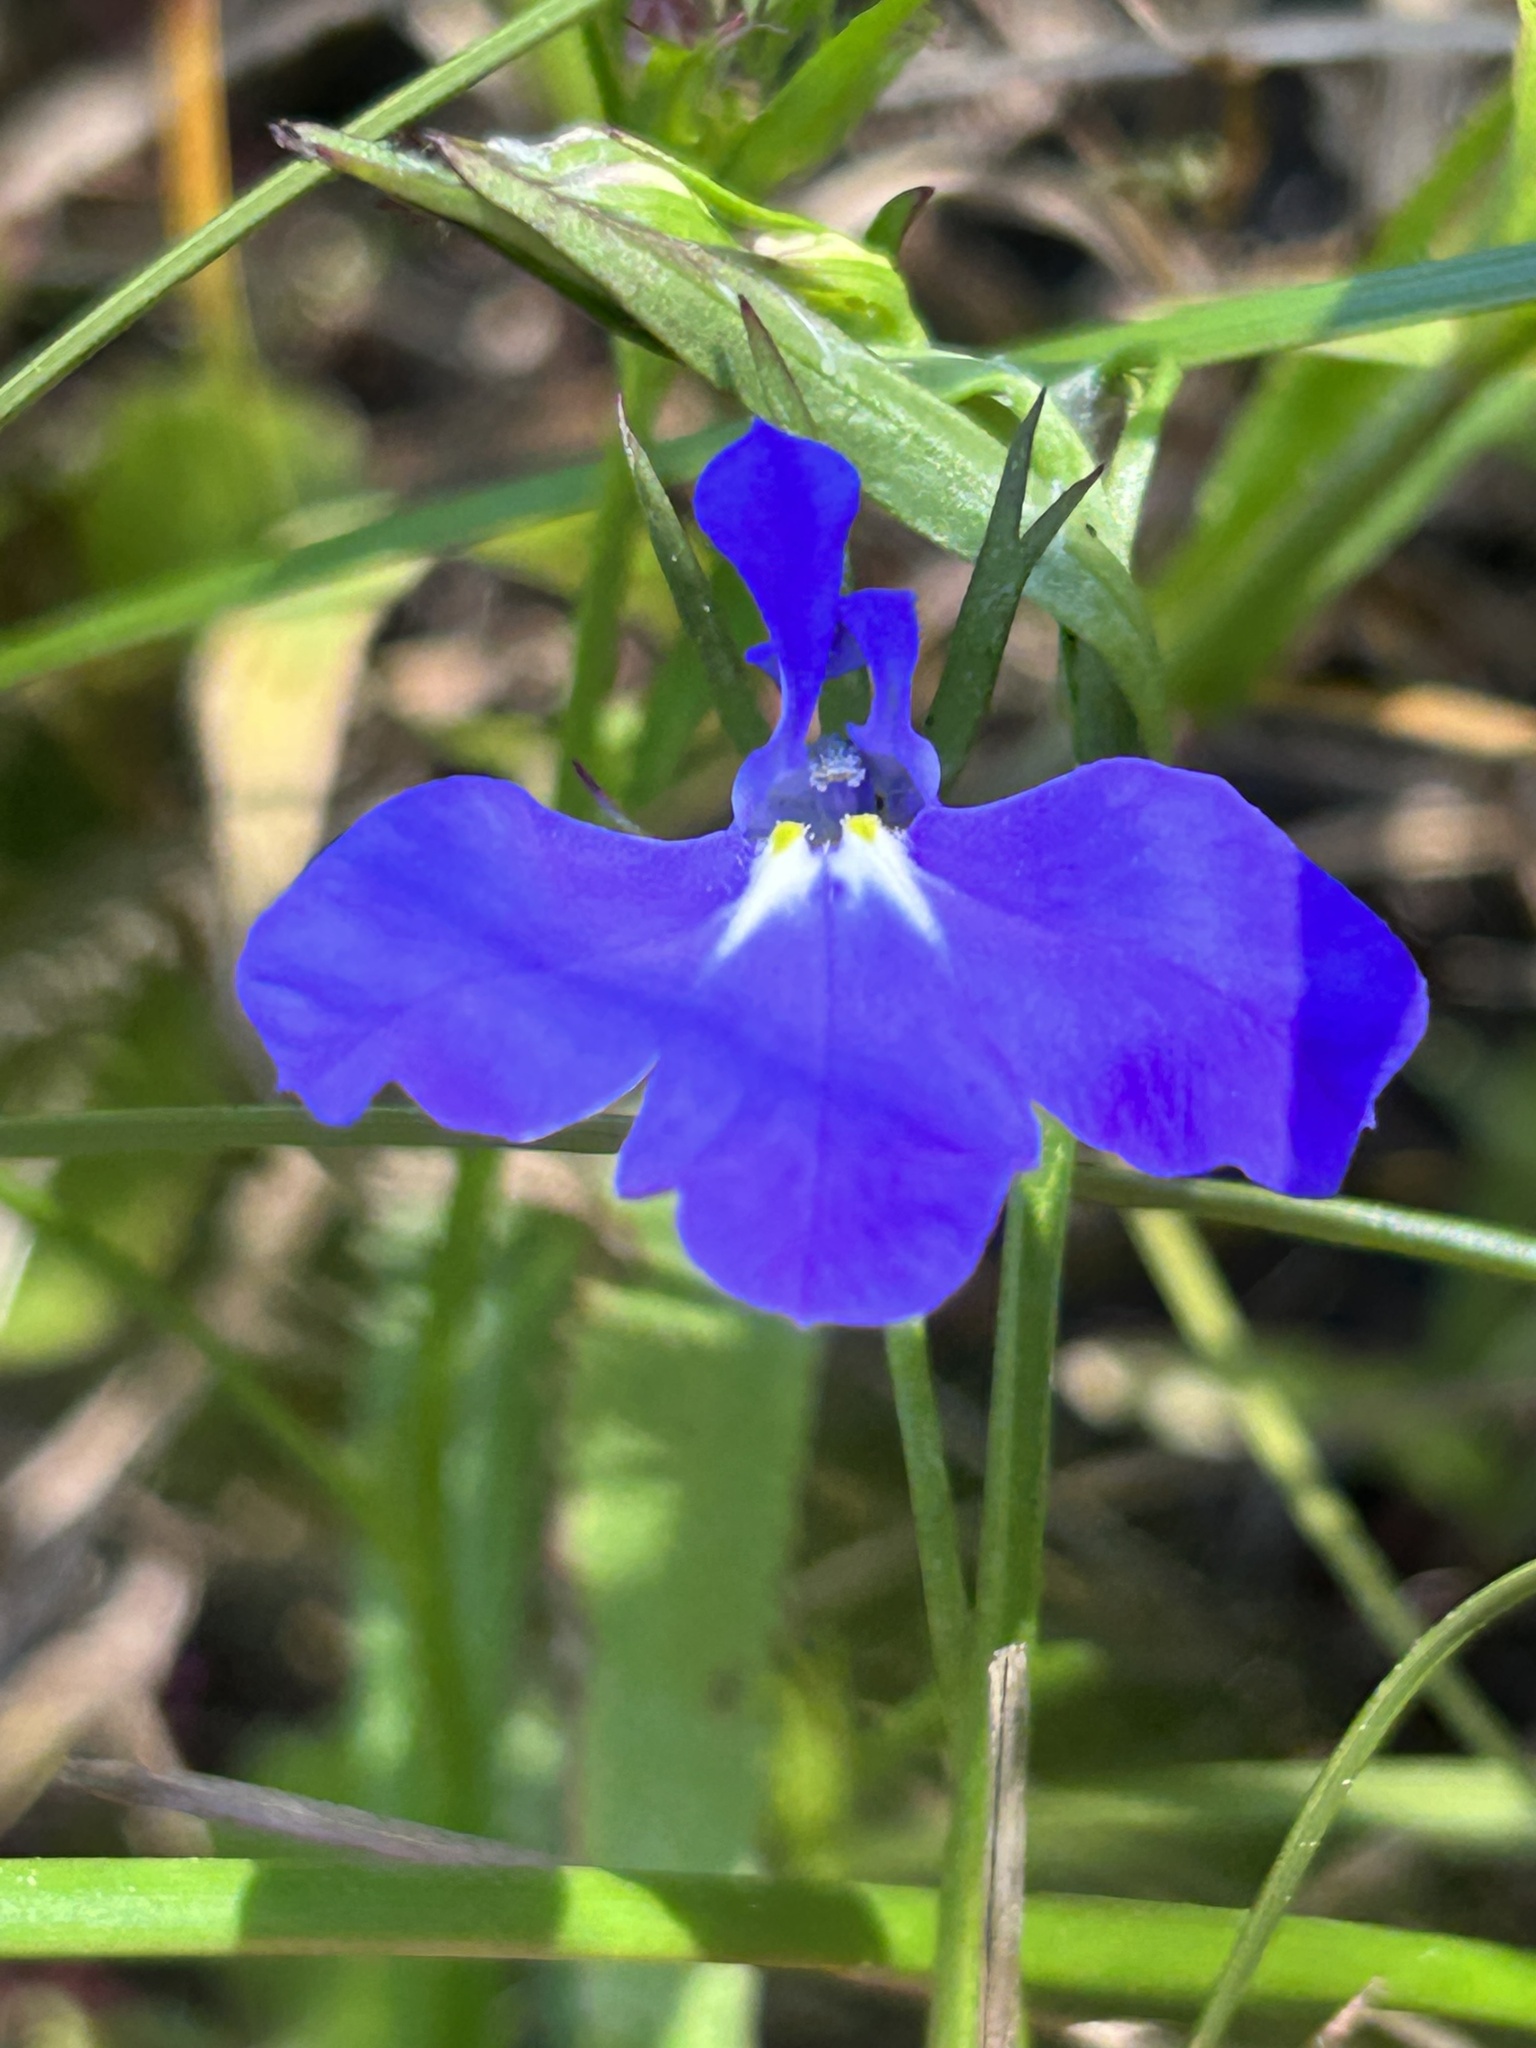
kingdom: Plantae
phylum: Tracheophyta
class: Magnoliopsida
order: Asterales
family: Campanulaceae
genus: Lobelia
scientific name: Lobelia erinus
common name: Edging lobelia
